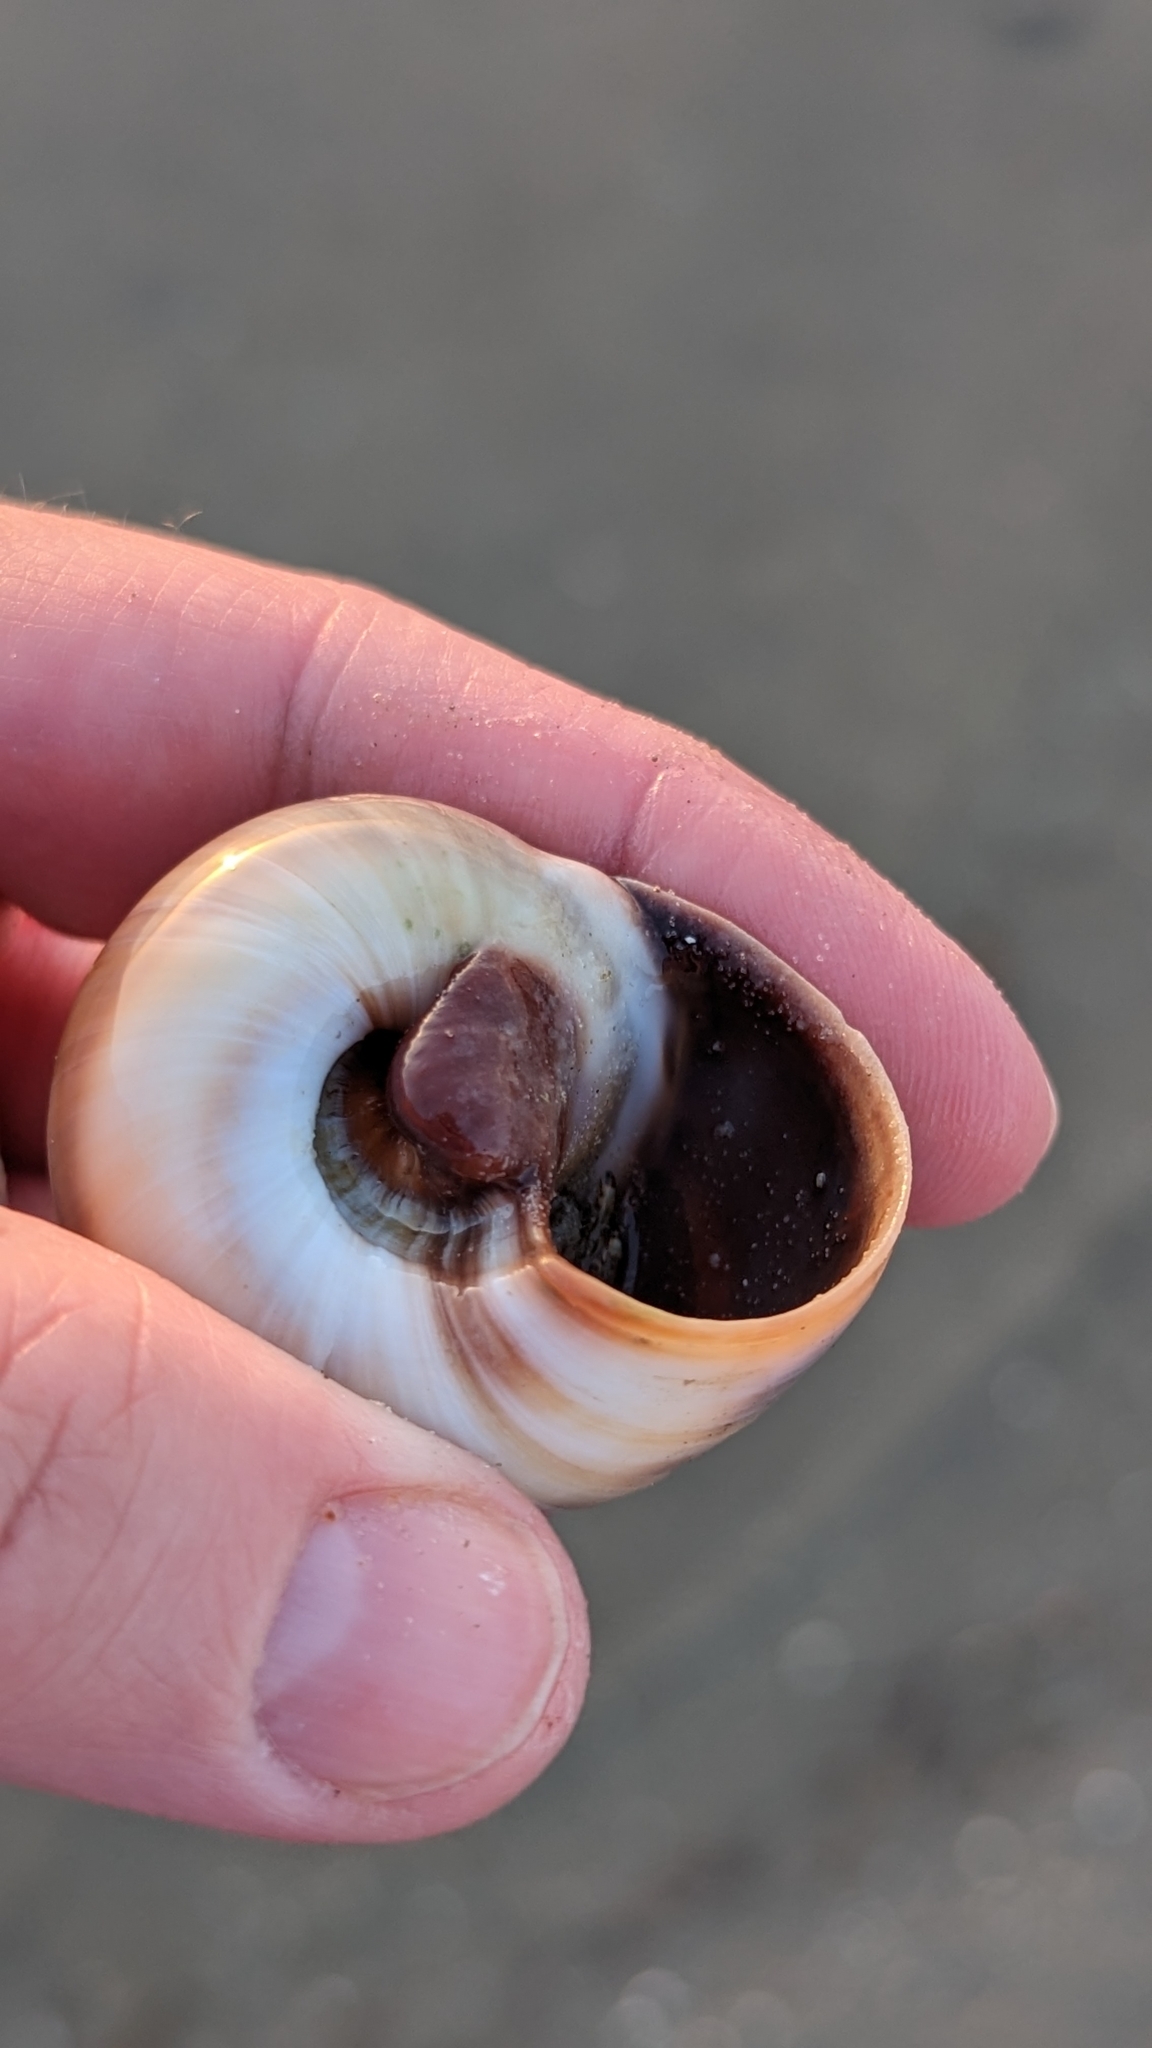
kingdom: Animalia
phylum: Mollusca
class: Gastropoda
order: Littorinimorpha
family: Naticidae
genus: Neverita
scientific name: Neverita delessertiana
